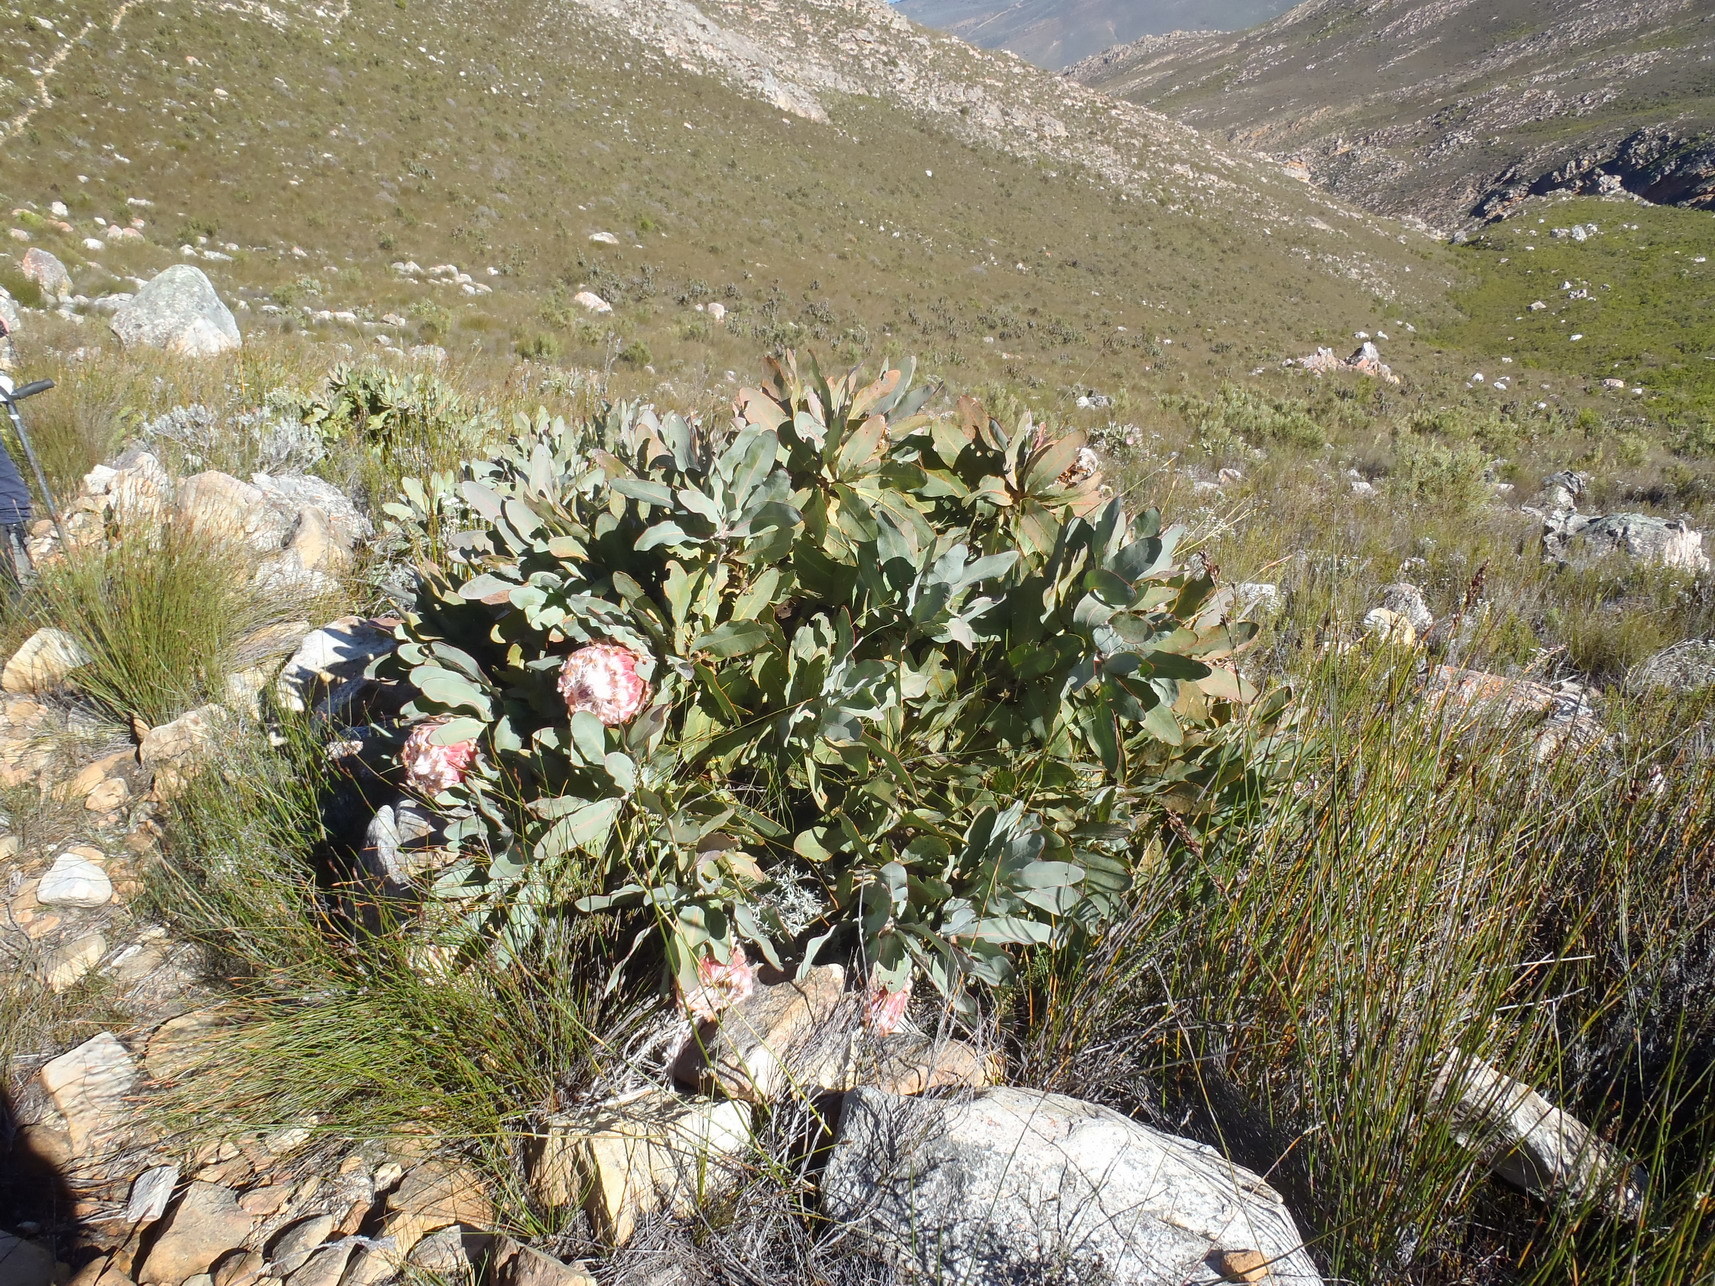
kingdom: Plantae
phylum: Tracheophyta
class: Magnoliopsida
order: Proteales
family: Proteaceae
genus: Protea
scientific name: Protea magnifica
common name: Bearded sugarbush
